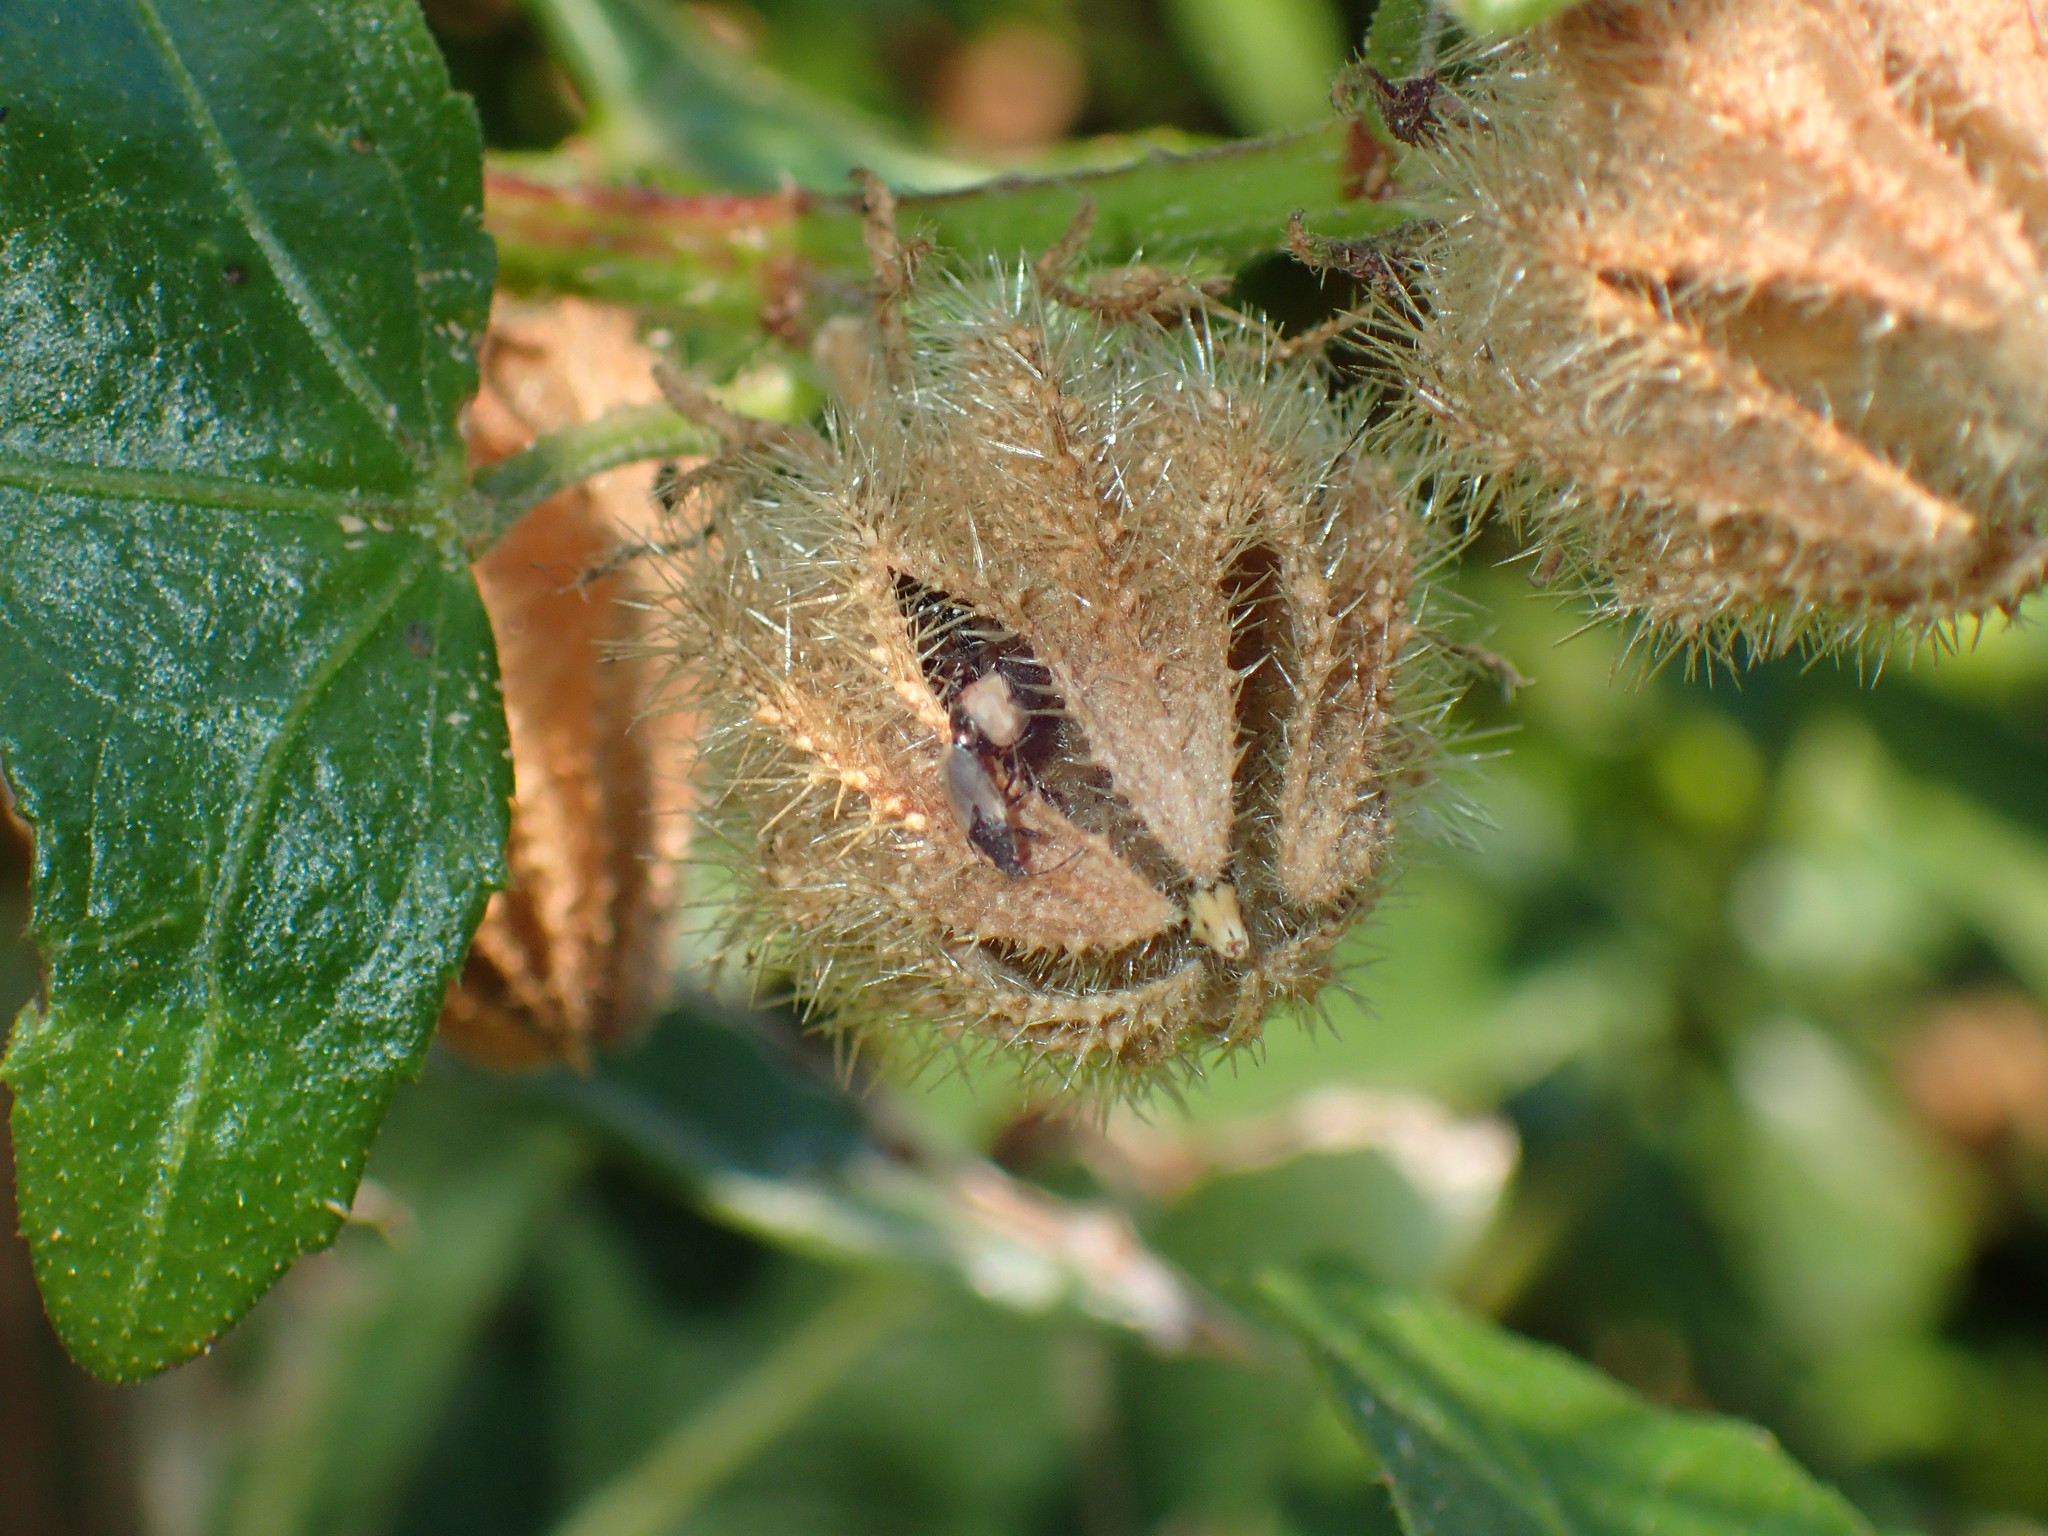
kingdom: Animalia
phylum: Arthropoda
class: Insecta
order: Hemiptera
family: Oxycarenidae
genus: Oxycarenus
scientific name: Oxycarenus hyalinipennis
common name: Cotton seed bug
